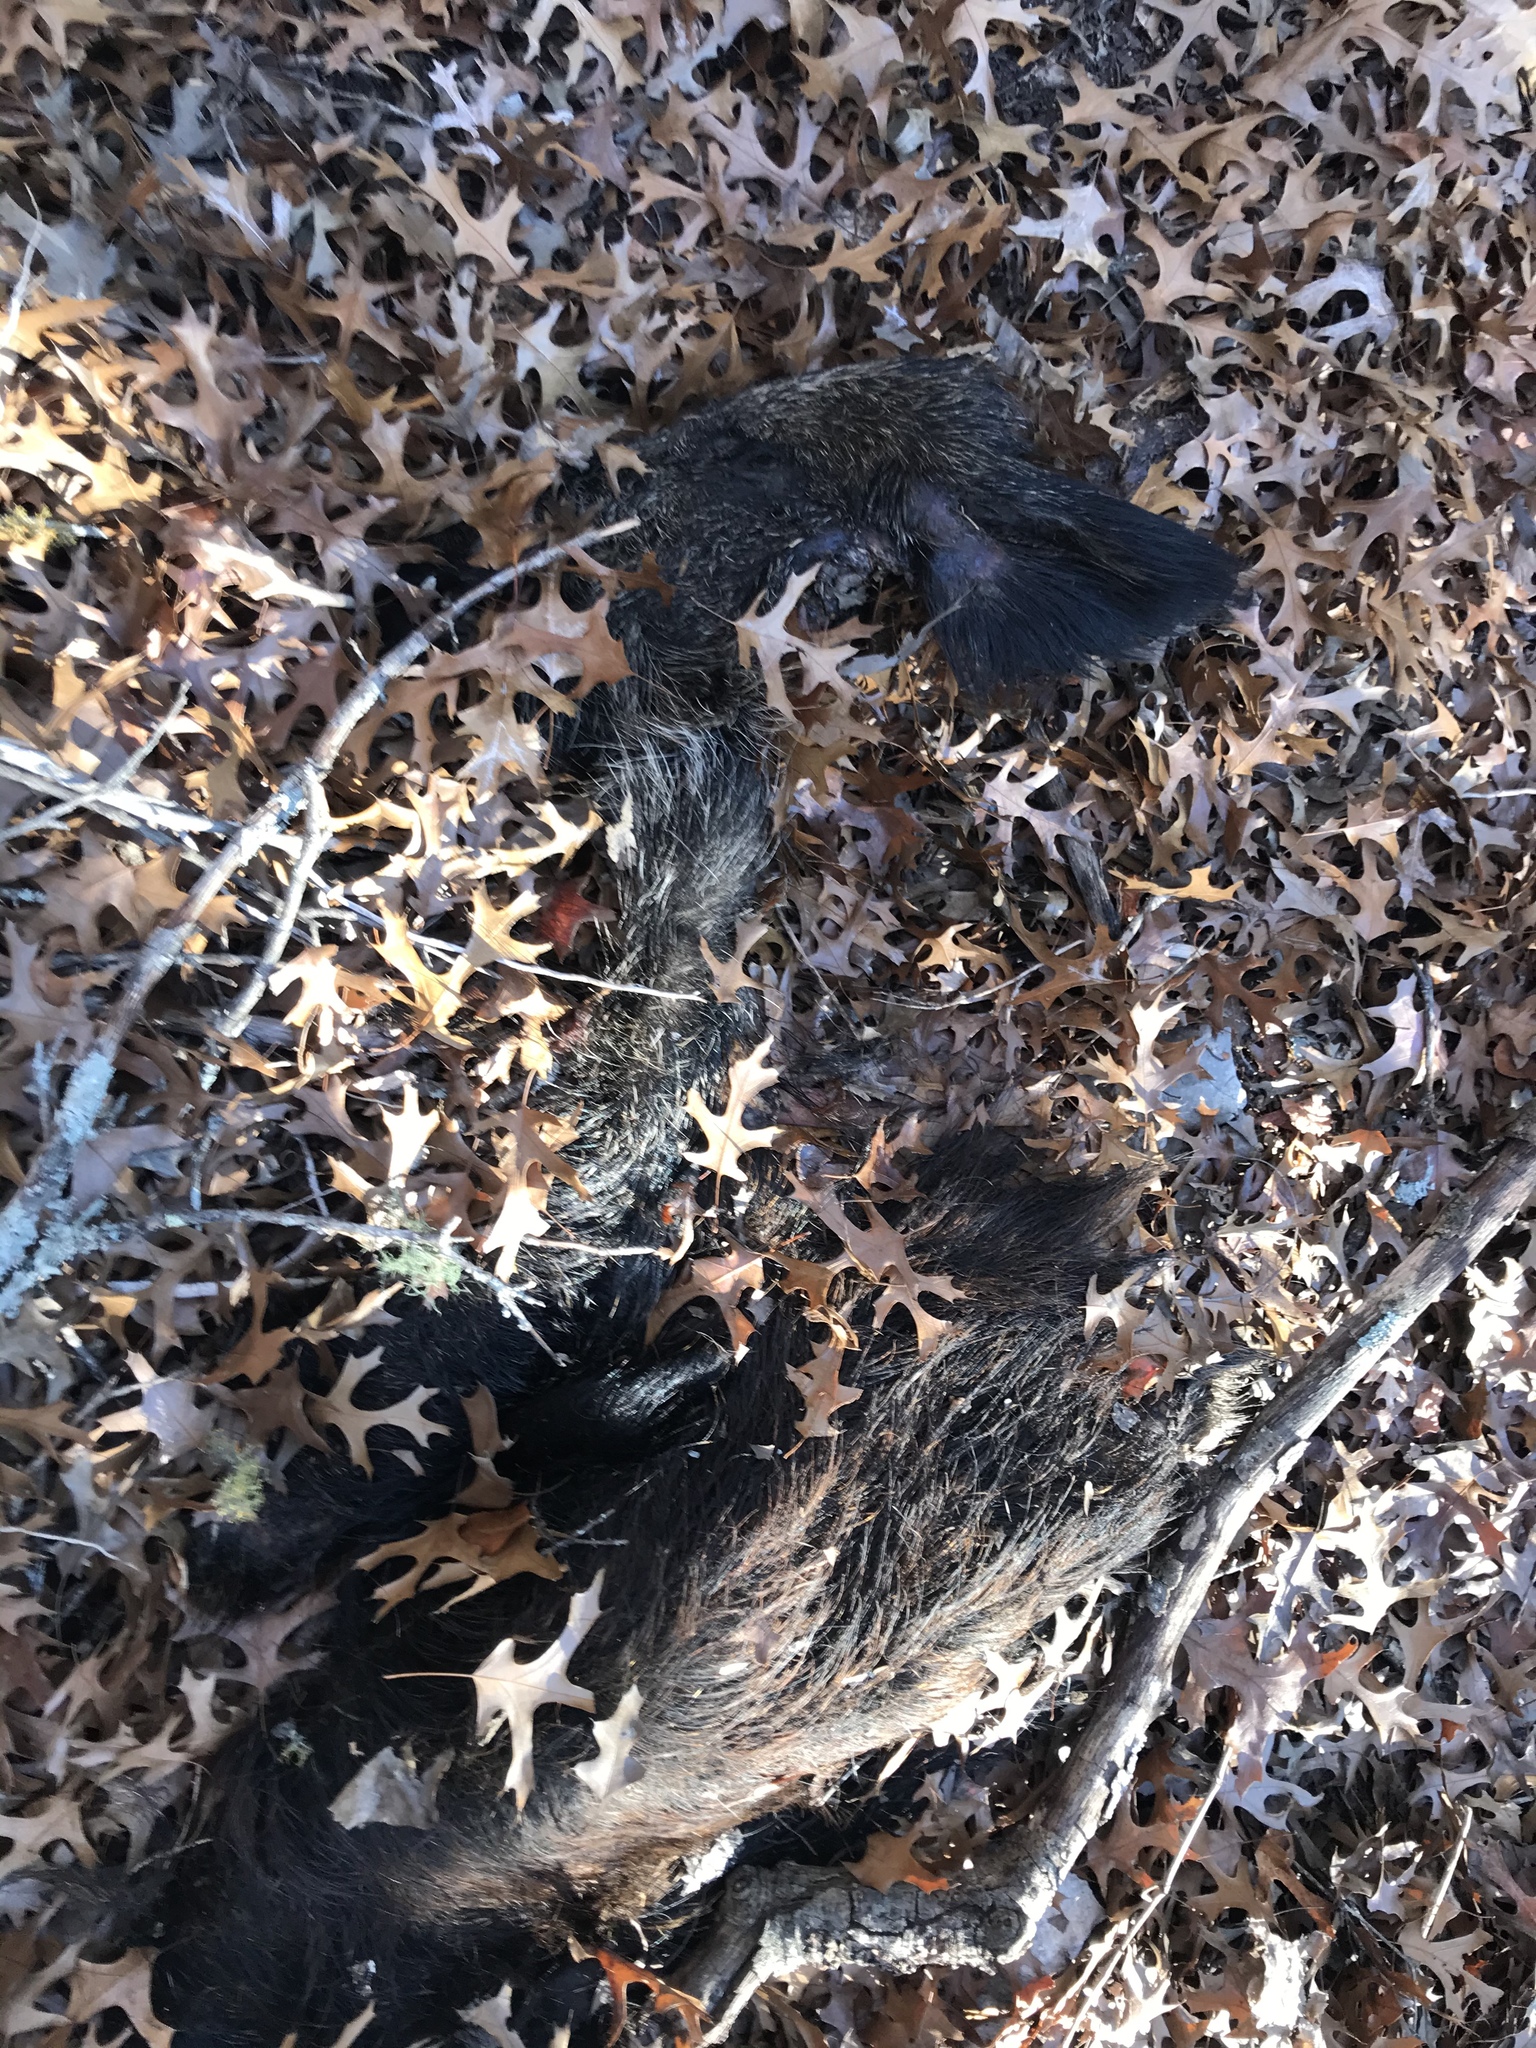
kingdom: Animalia
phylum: Chordata
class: Mammalia
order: Artiodactyla
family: Suidae
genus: Sus
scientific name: Sus scrofa
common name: Wild boar
